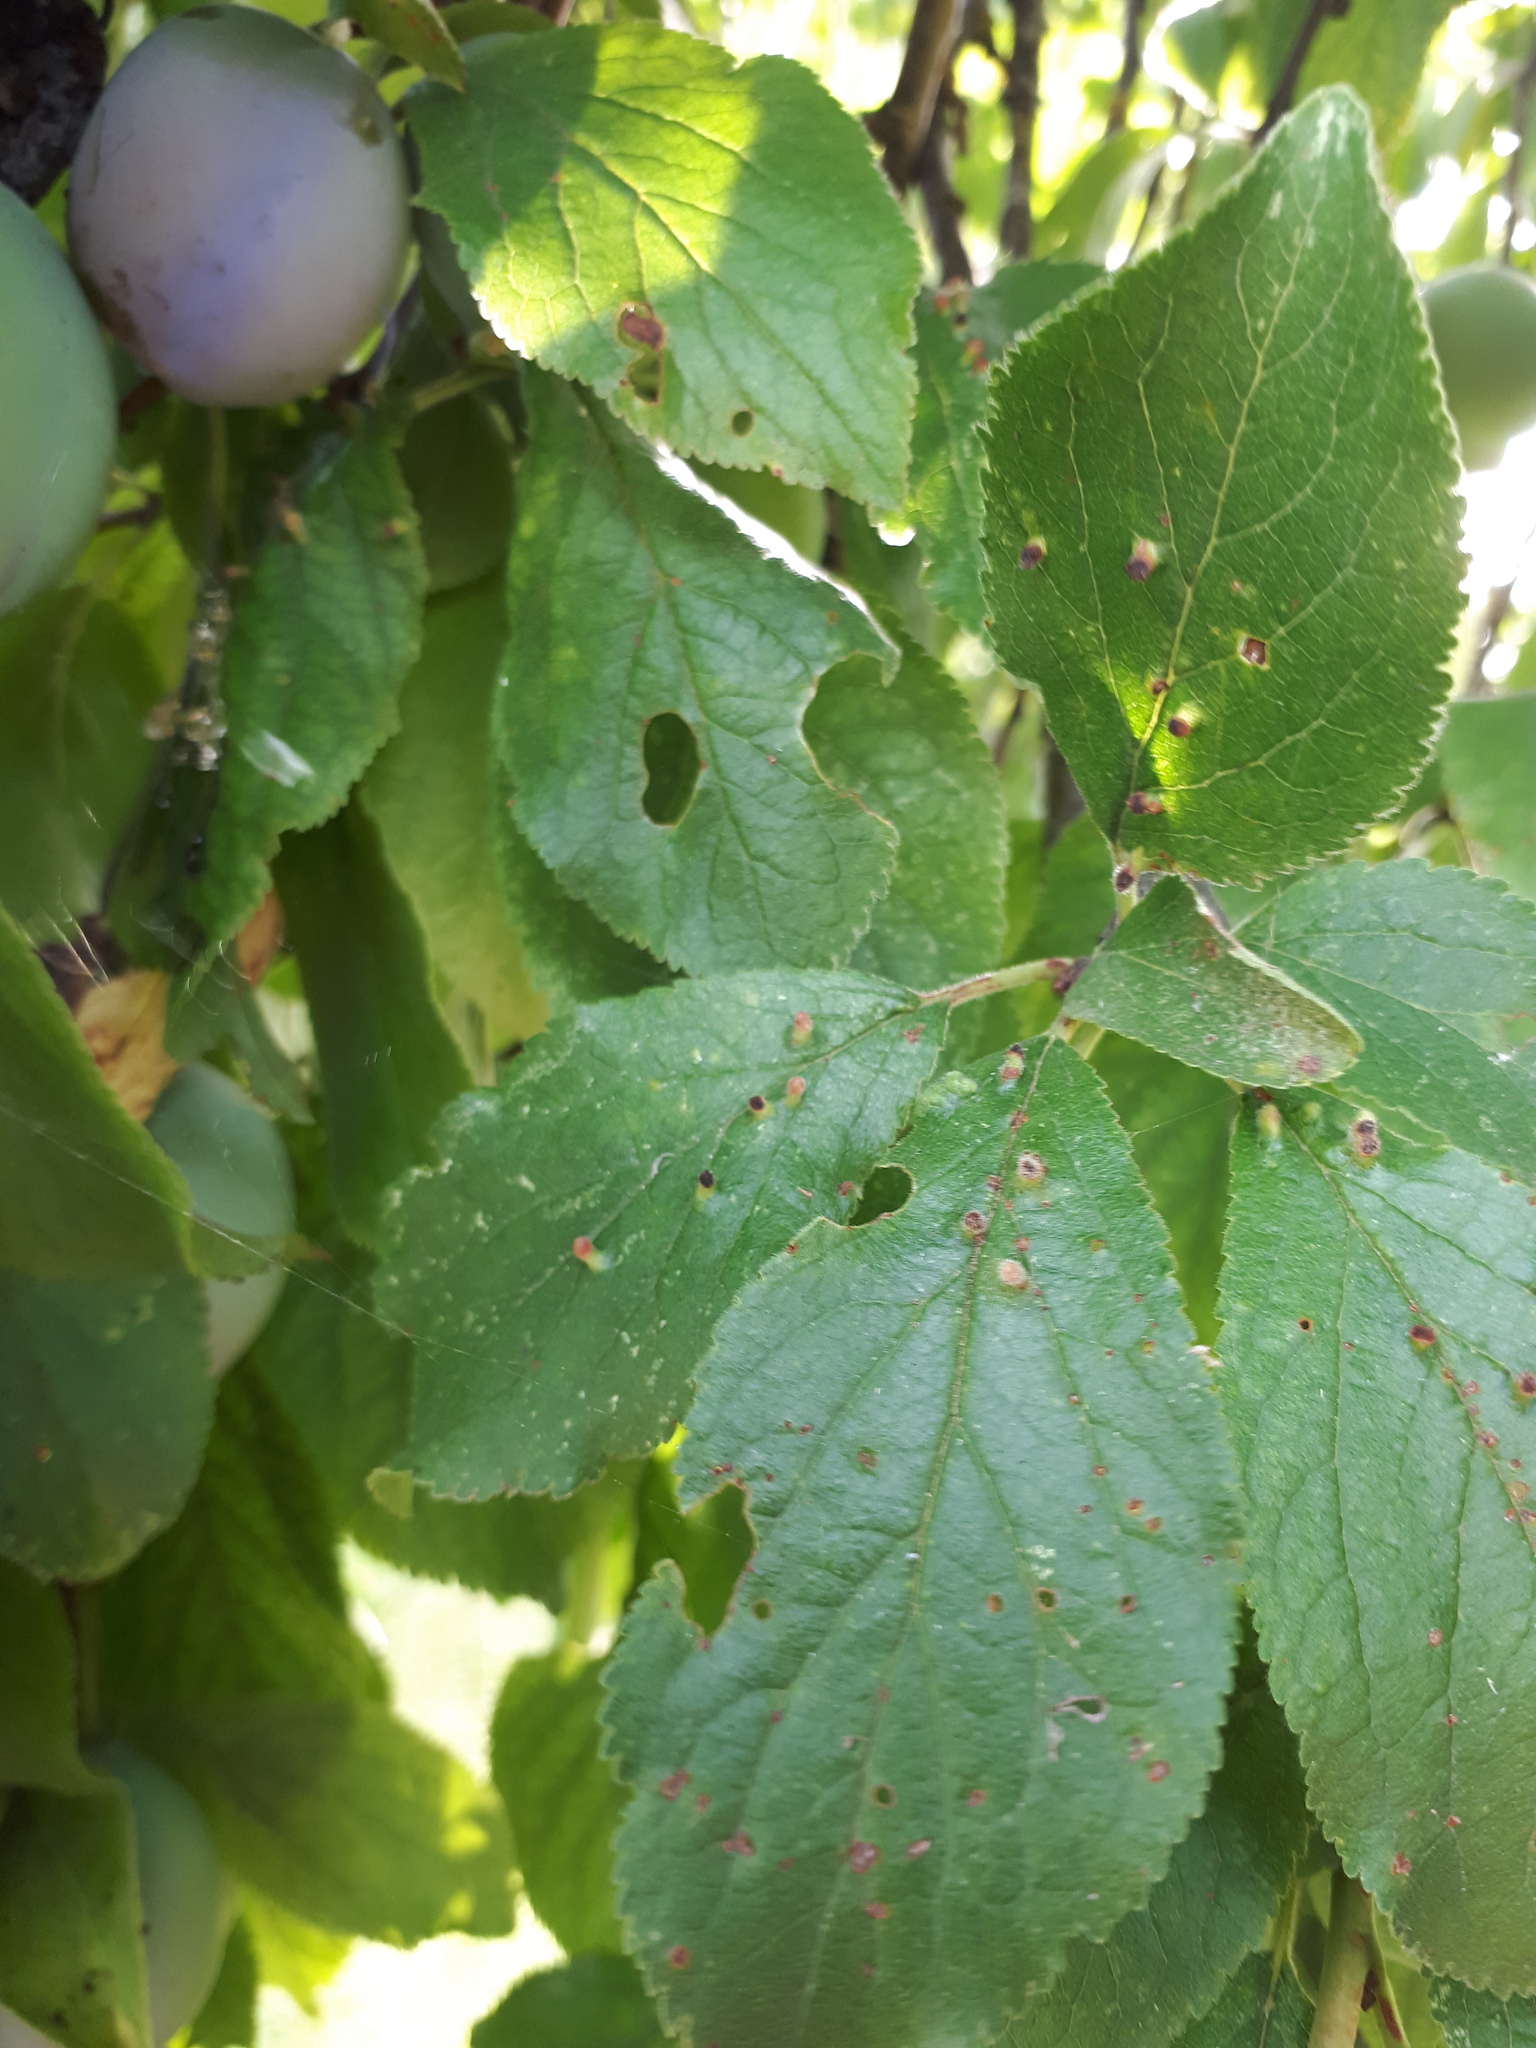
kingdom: Animalia
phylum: Arthropoda
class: Arachnida
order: Trombidiformes
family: Eriophyidae
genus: Phyllocoptes
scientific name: Phyllocoptes eupadi
